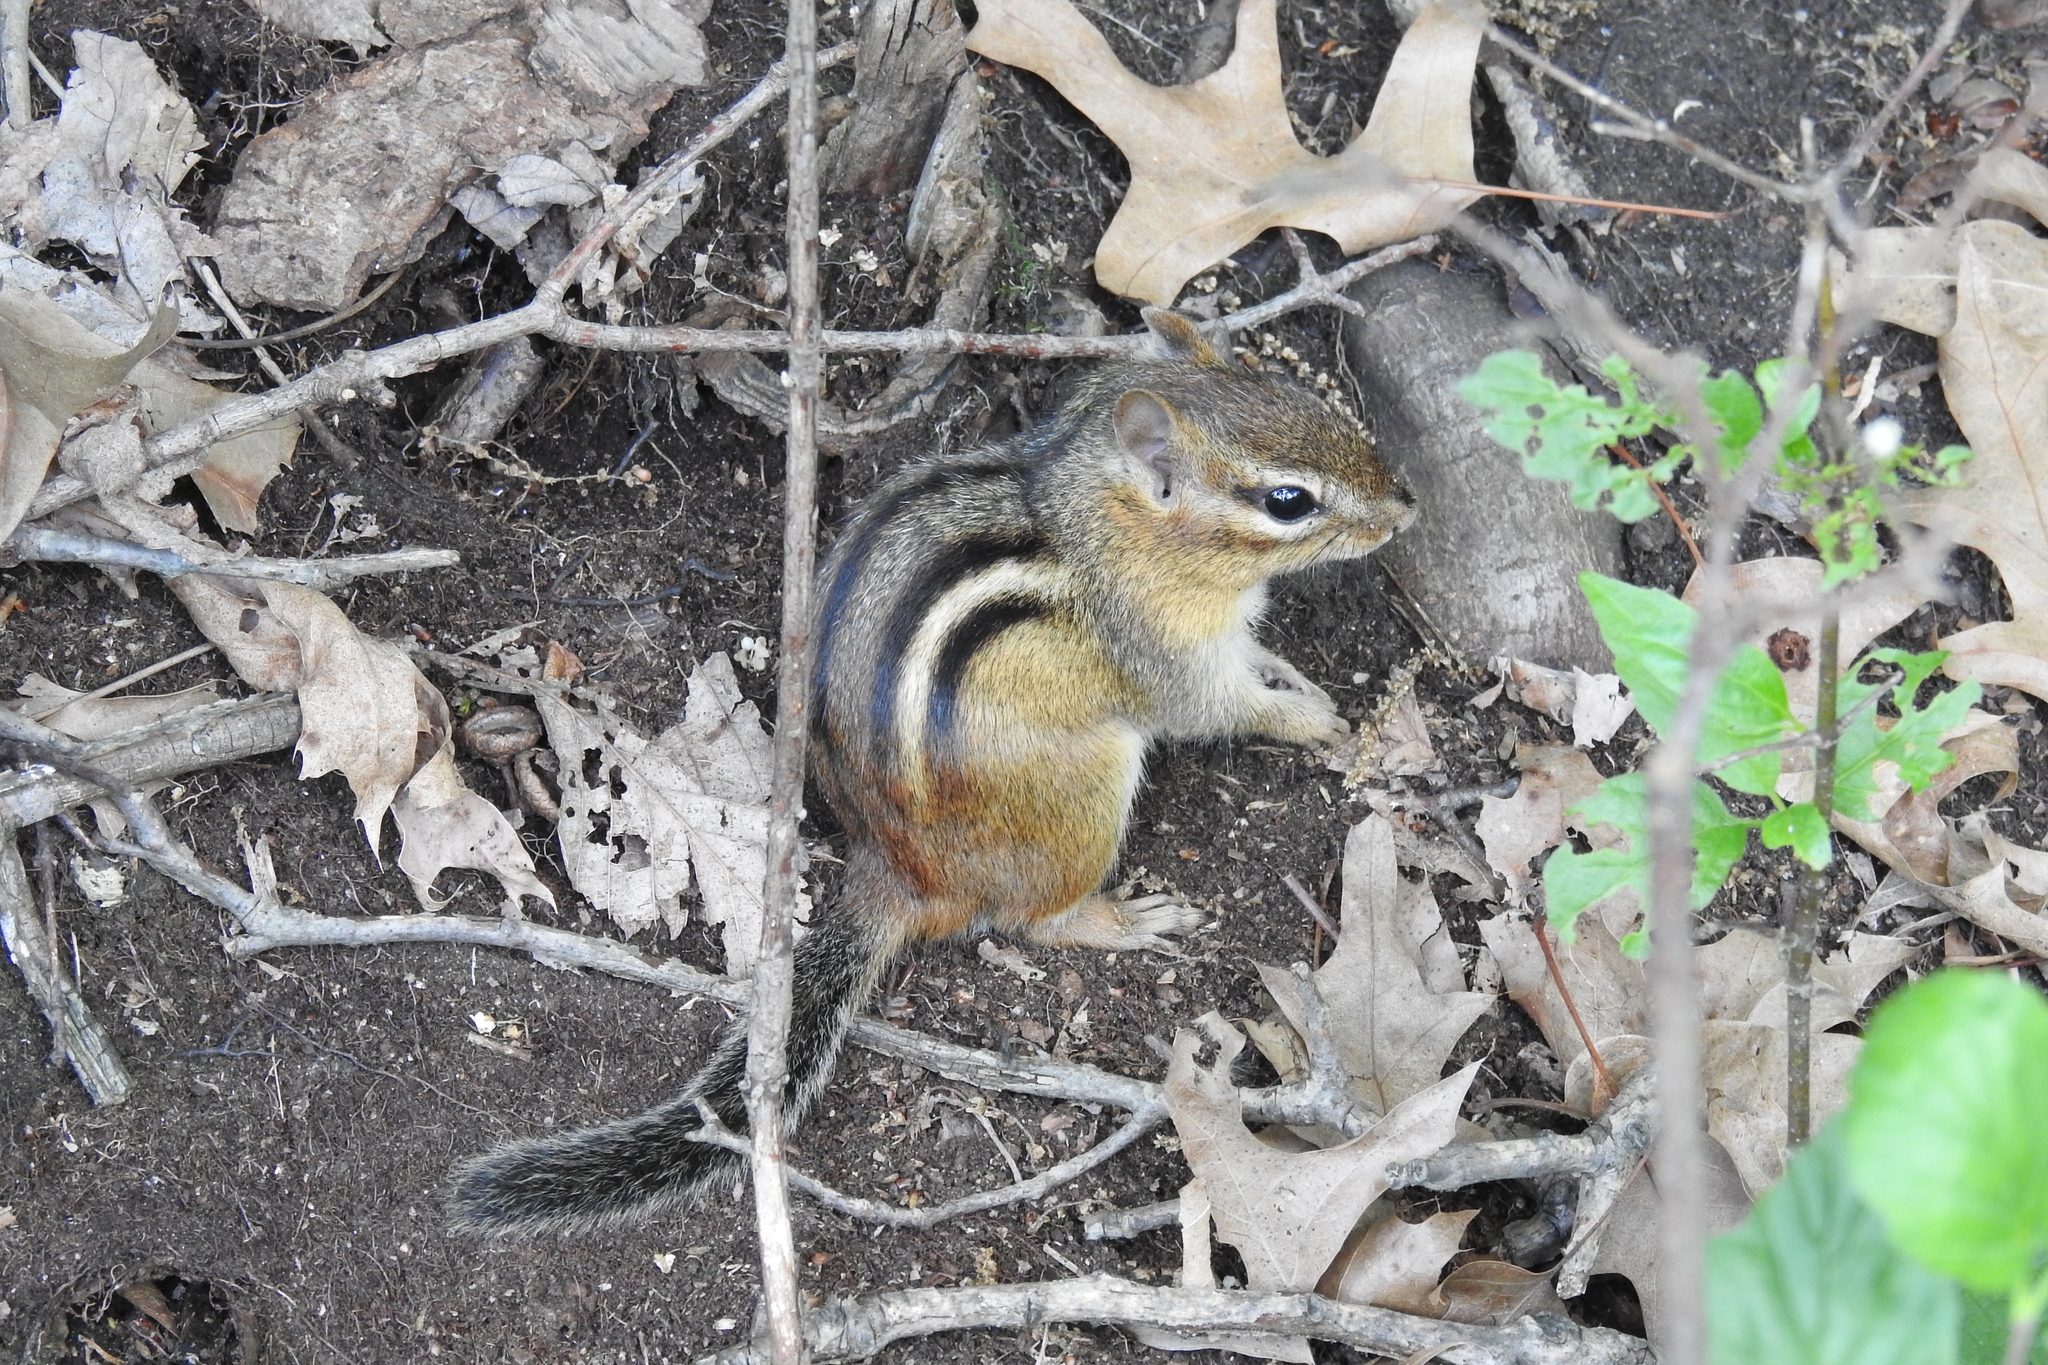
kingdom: Animalia
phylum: Chordata
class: Mammalia
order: Rodentia
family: Sciuridae
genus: Tamias
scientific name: Tamias striatus
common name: Eastern chipmunk
